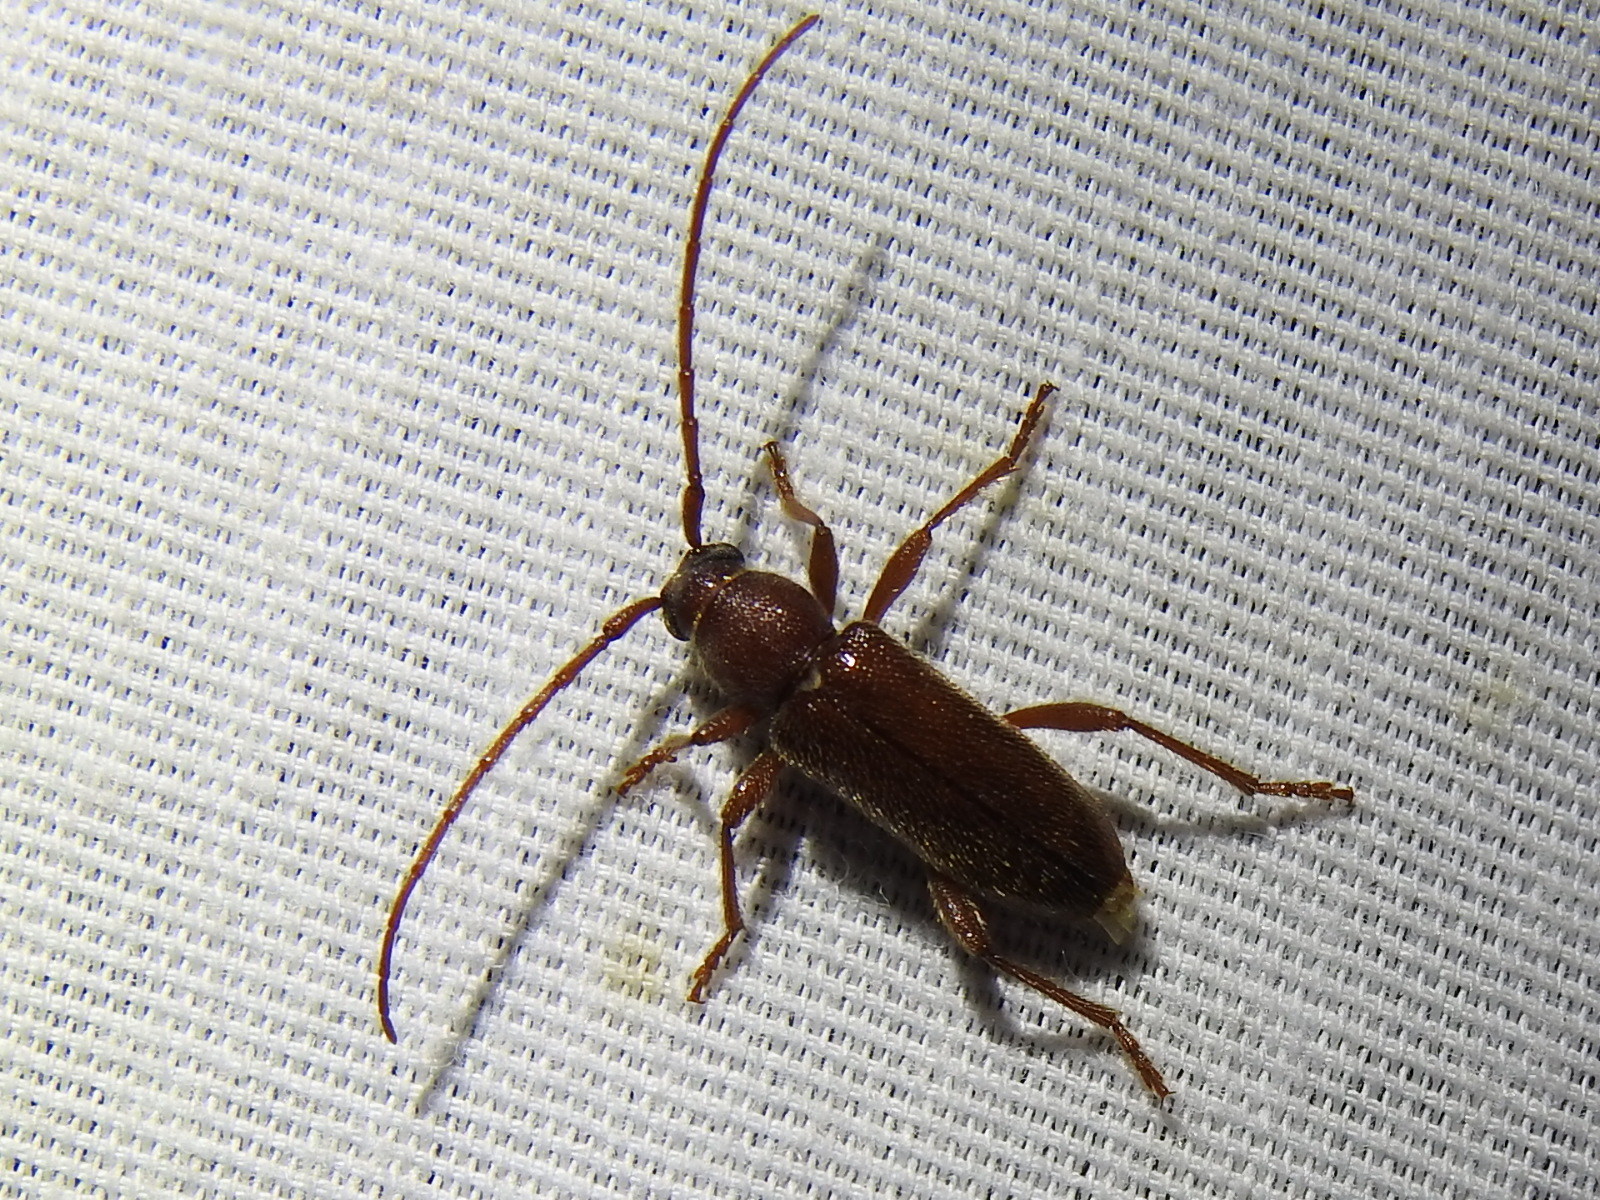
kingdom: Animalia
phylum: Arthropoda
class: Insecta
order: Coleoptera
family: Cerambycidae
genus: Anelaphus
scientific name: Anelaphus moestus
